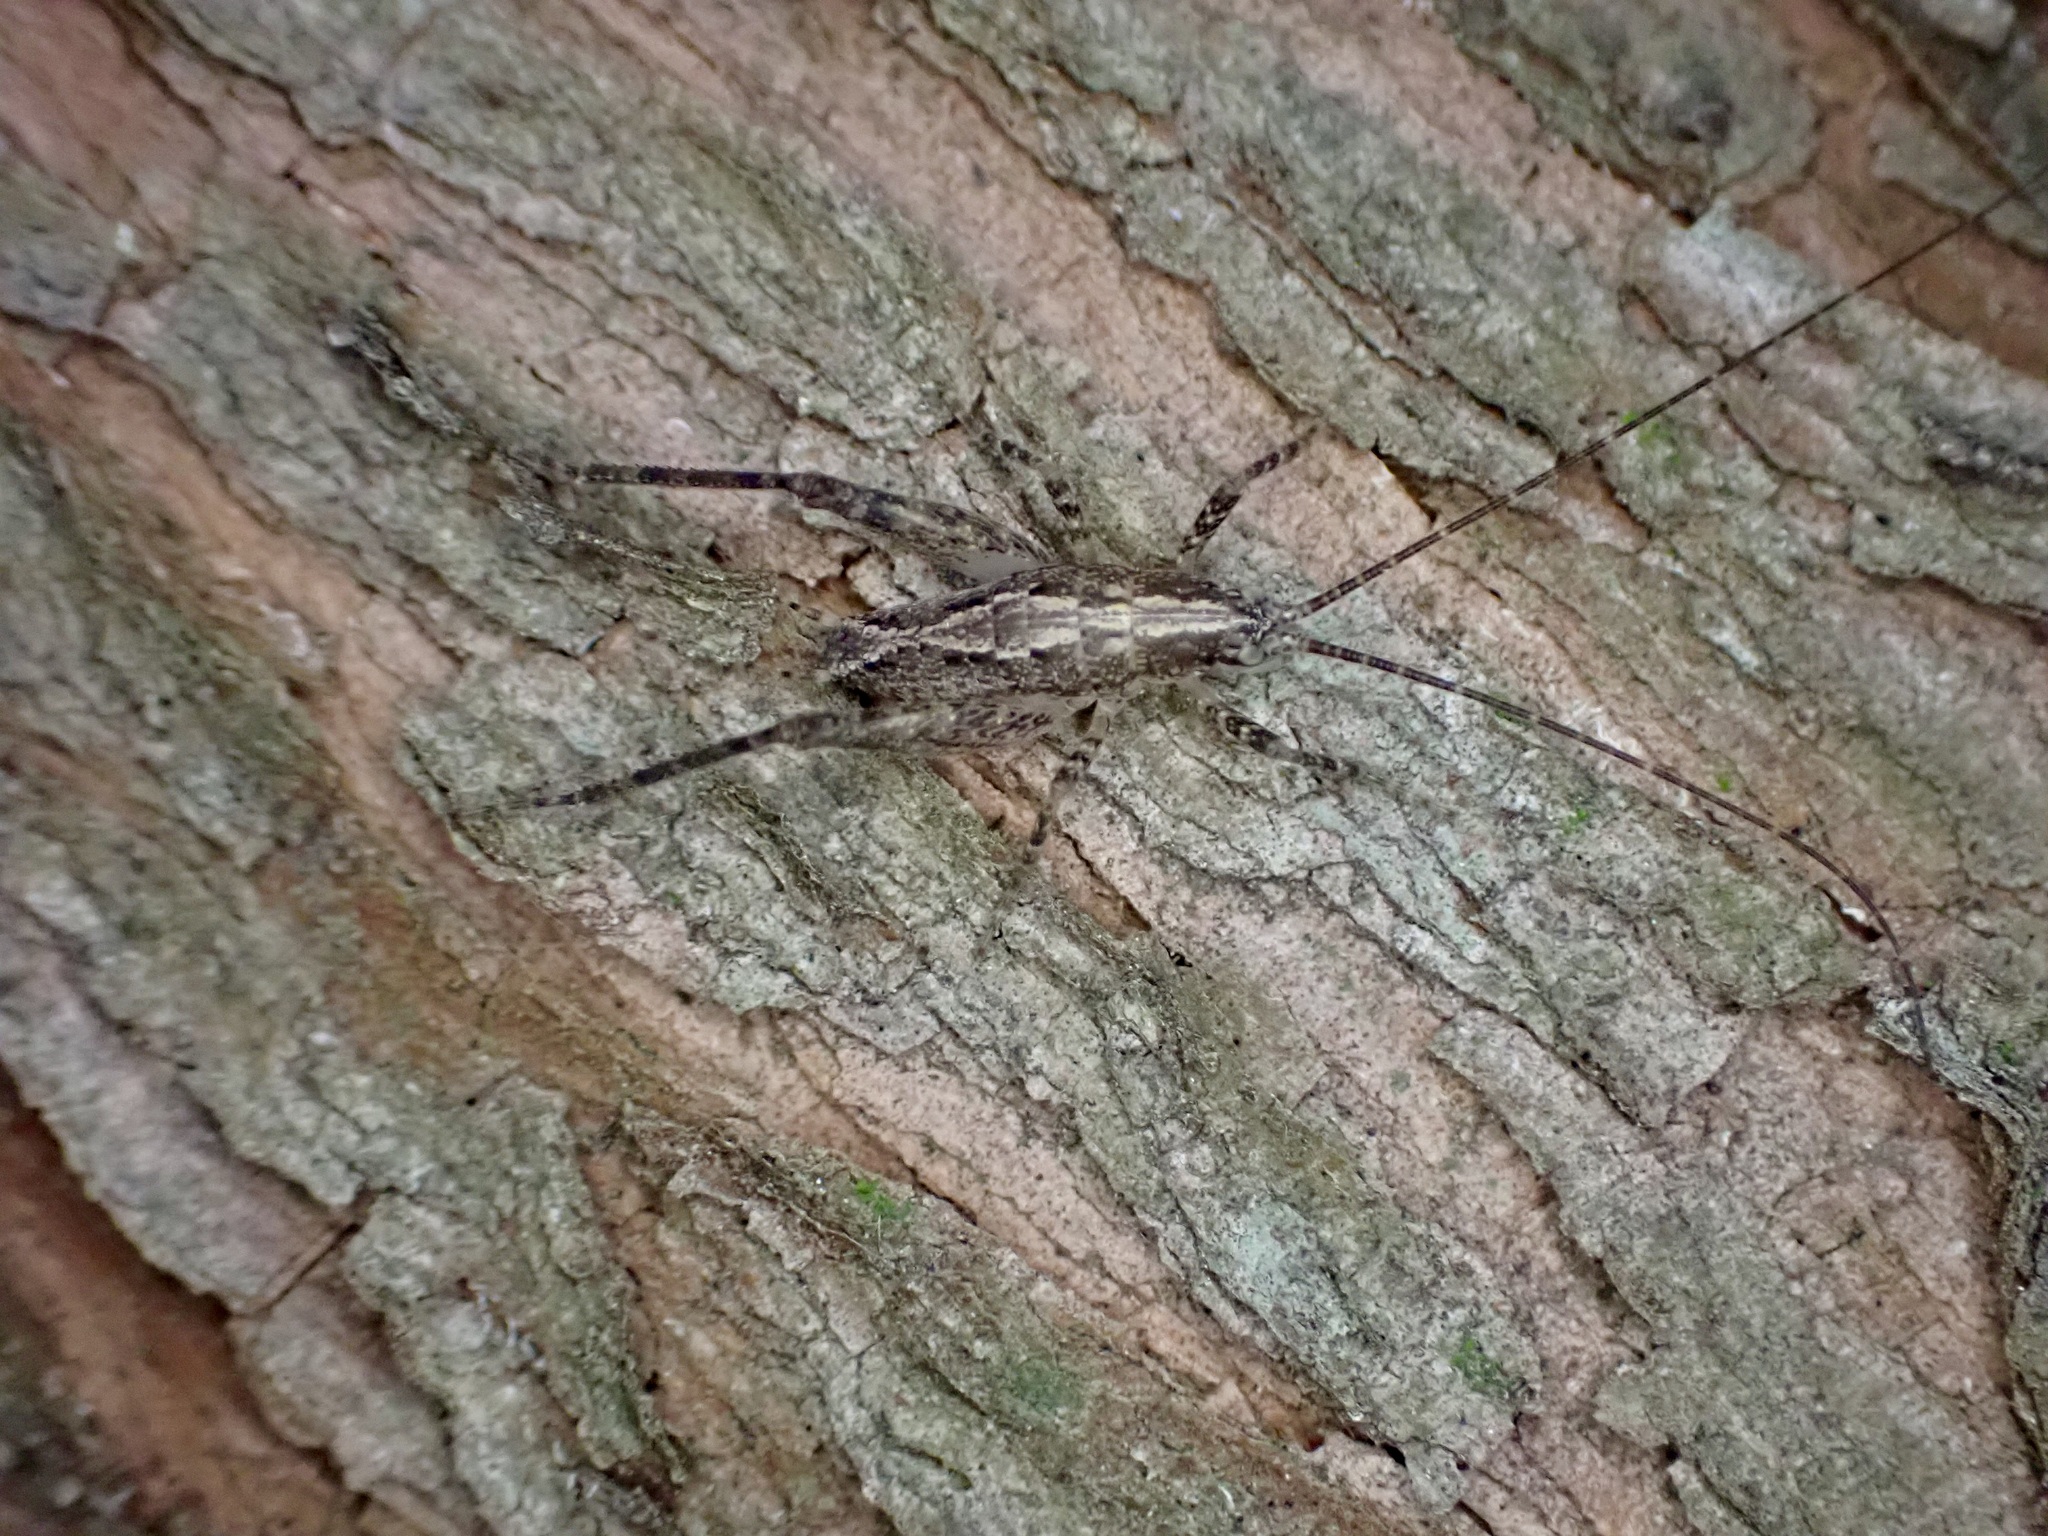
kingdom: Animalia
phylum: Arthropoda
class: Insecta
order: Orthoptera
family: Rhaphidophoridae
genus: Isoplectron
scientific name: Isoplectron armatum
